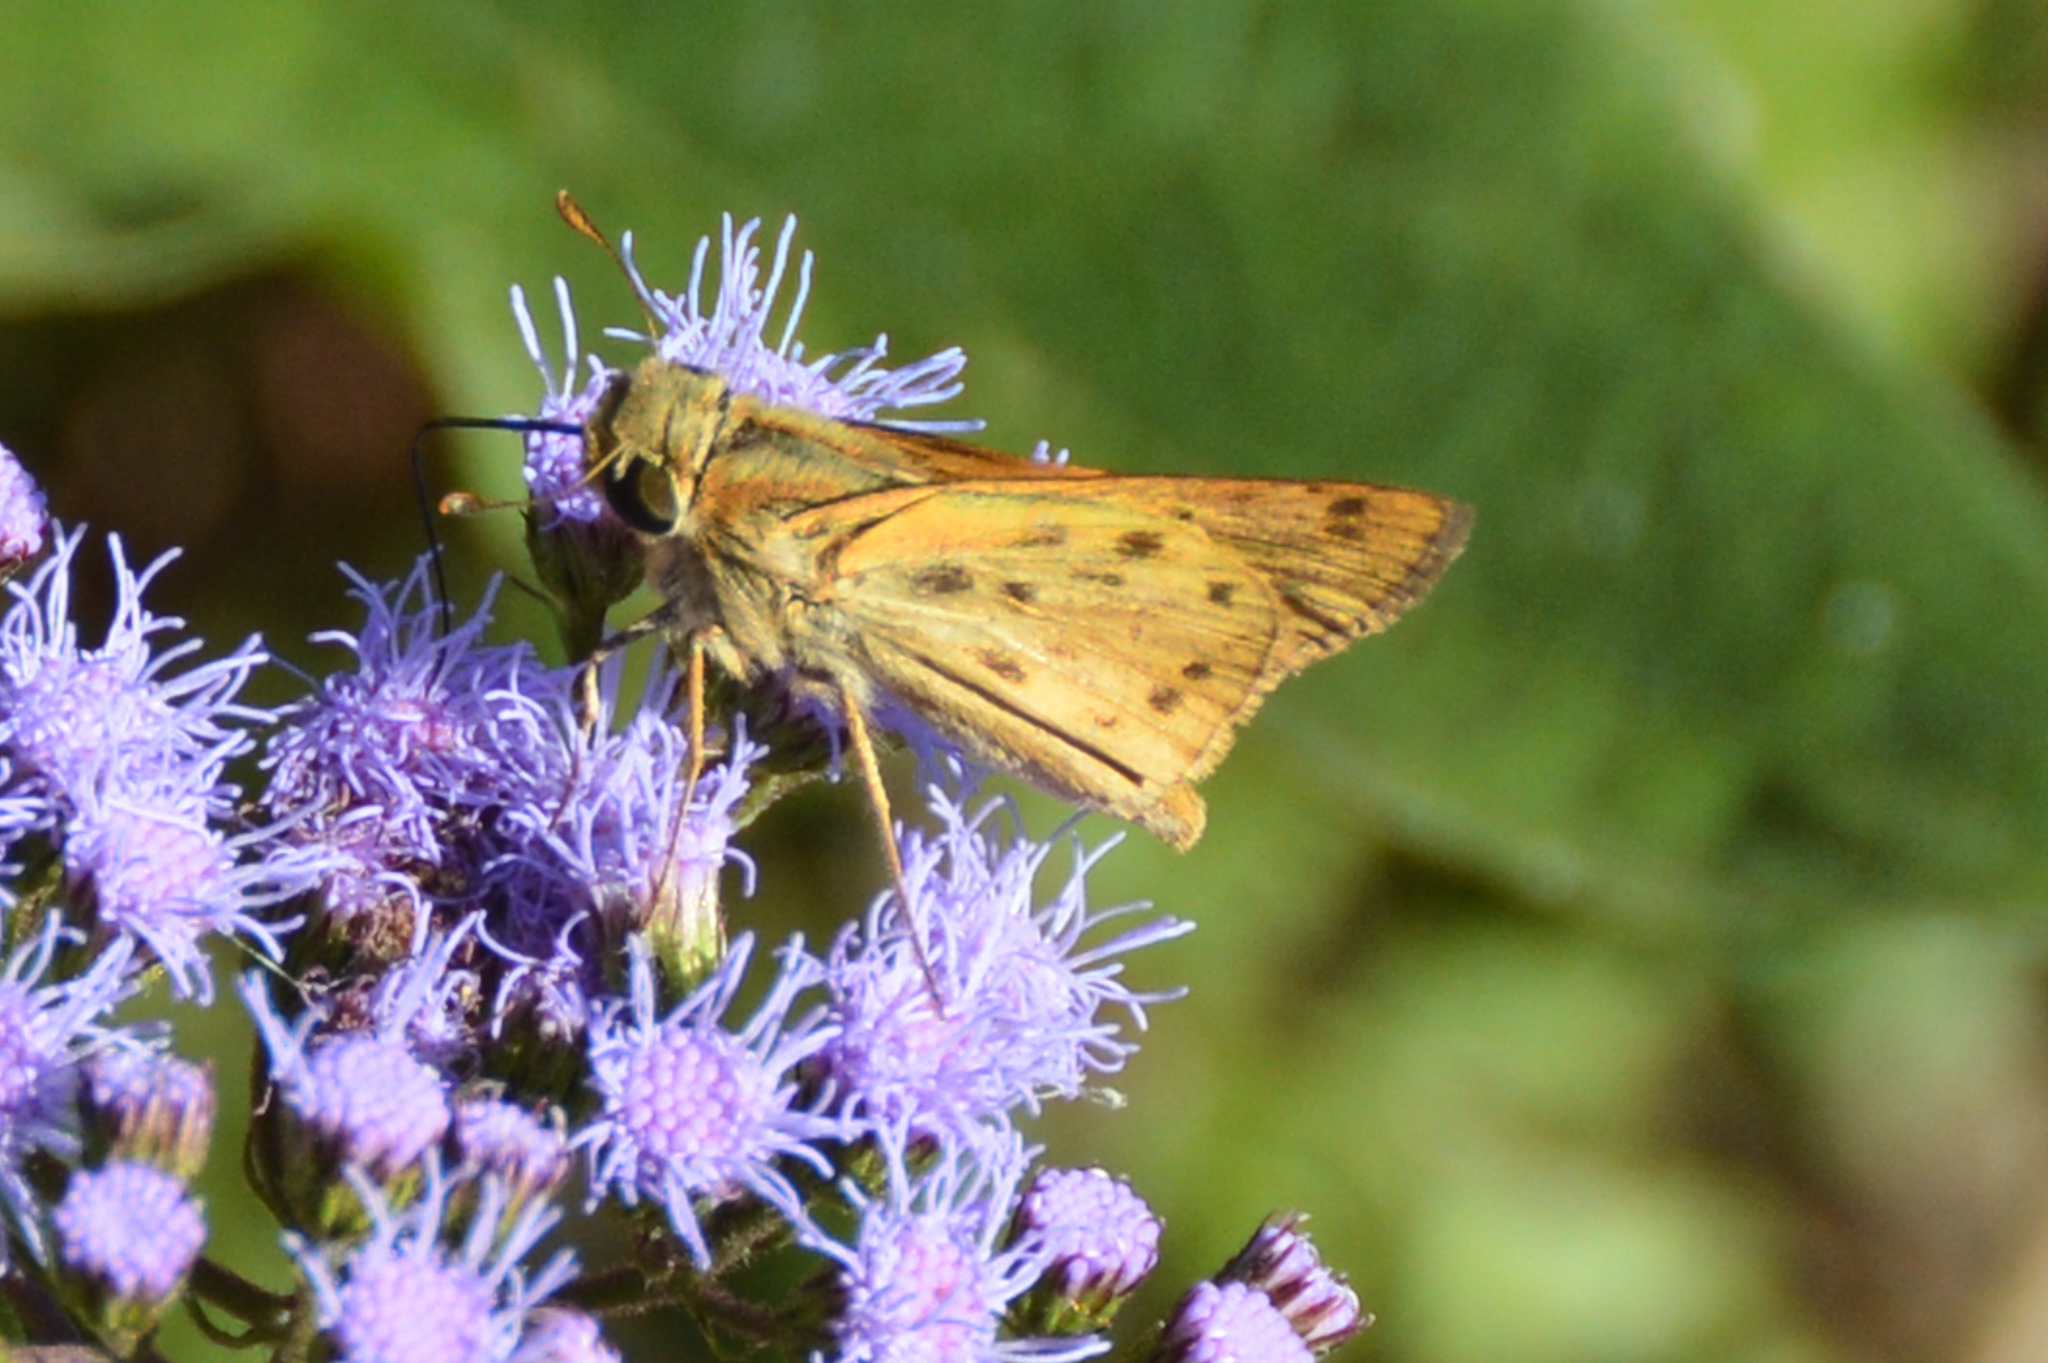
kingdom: Animalia
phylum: Arthropoda
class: Insecta
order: Lepidoptera
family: Hesperiidae
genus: Hylephila
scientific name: Hylephila phyleus
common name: Fiery skipper
